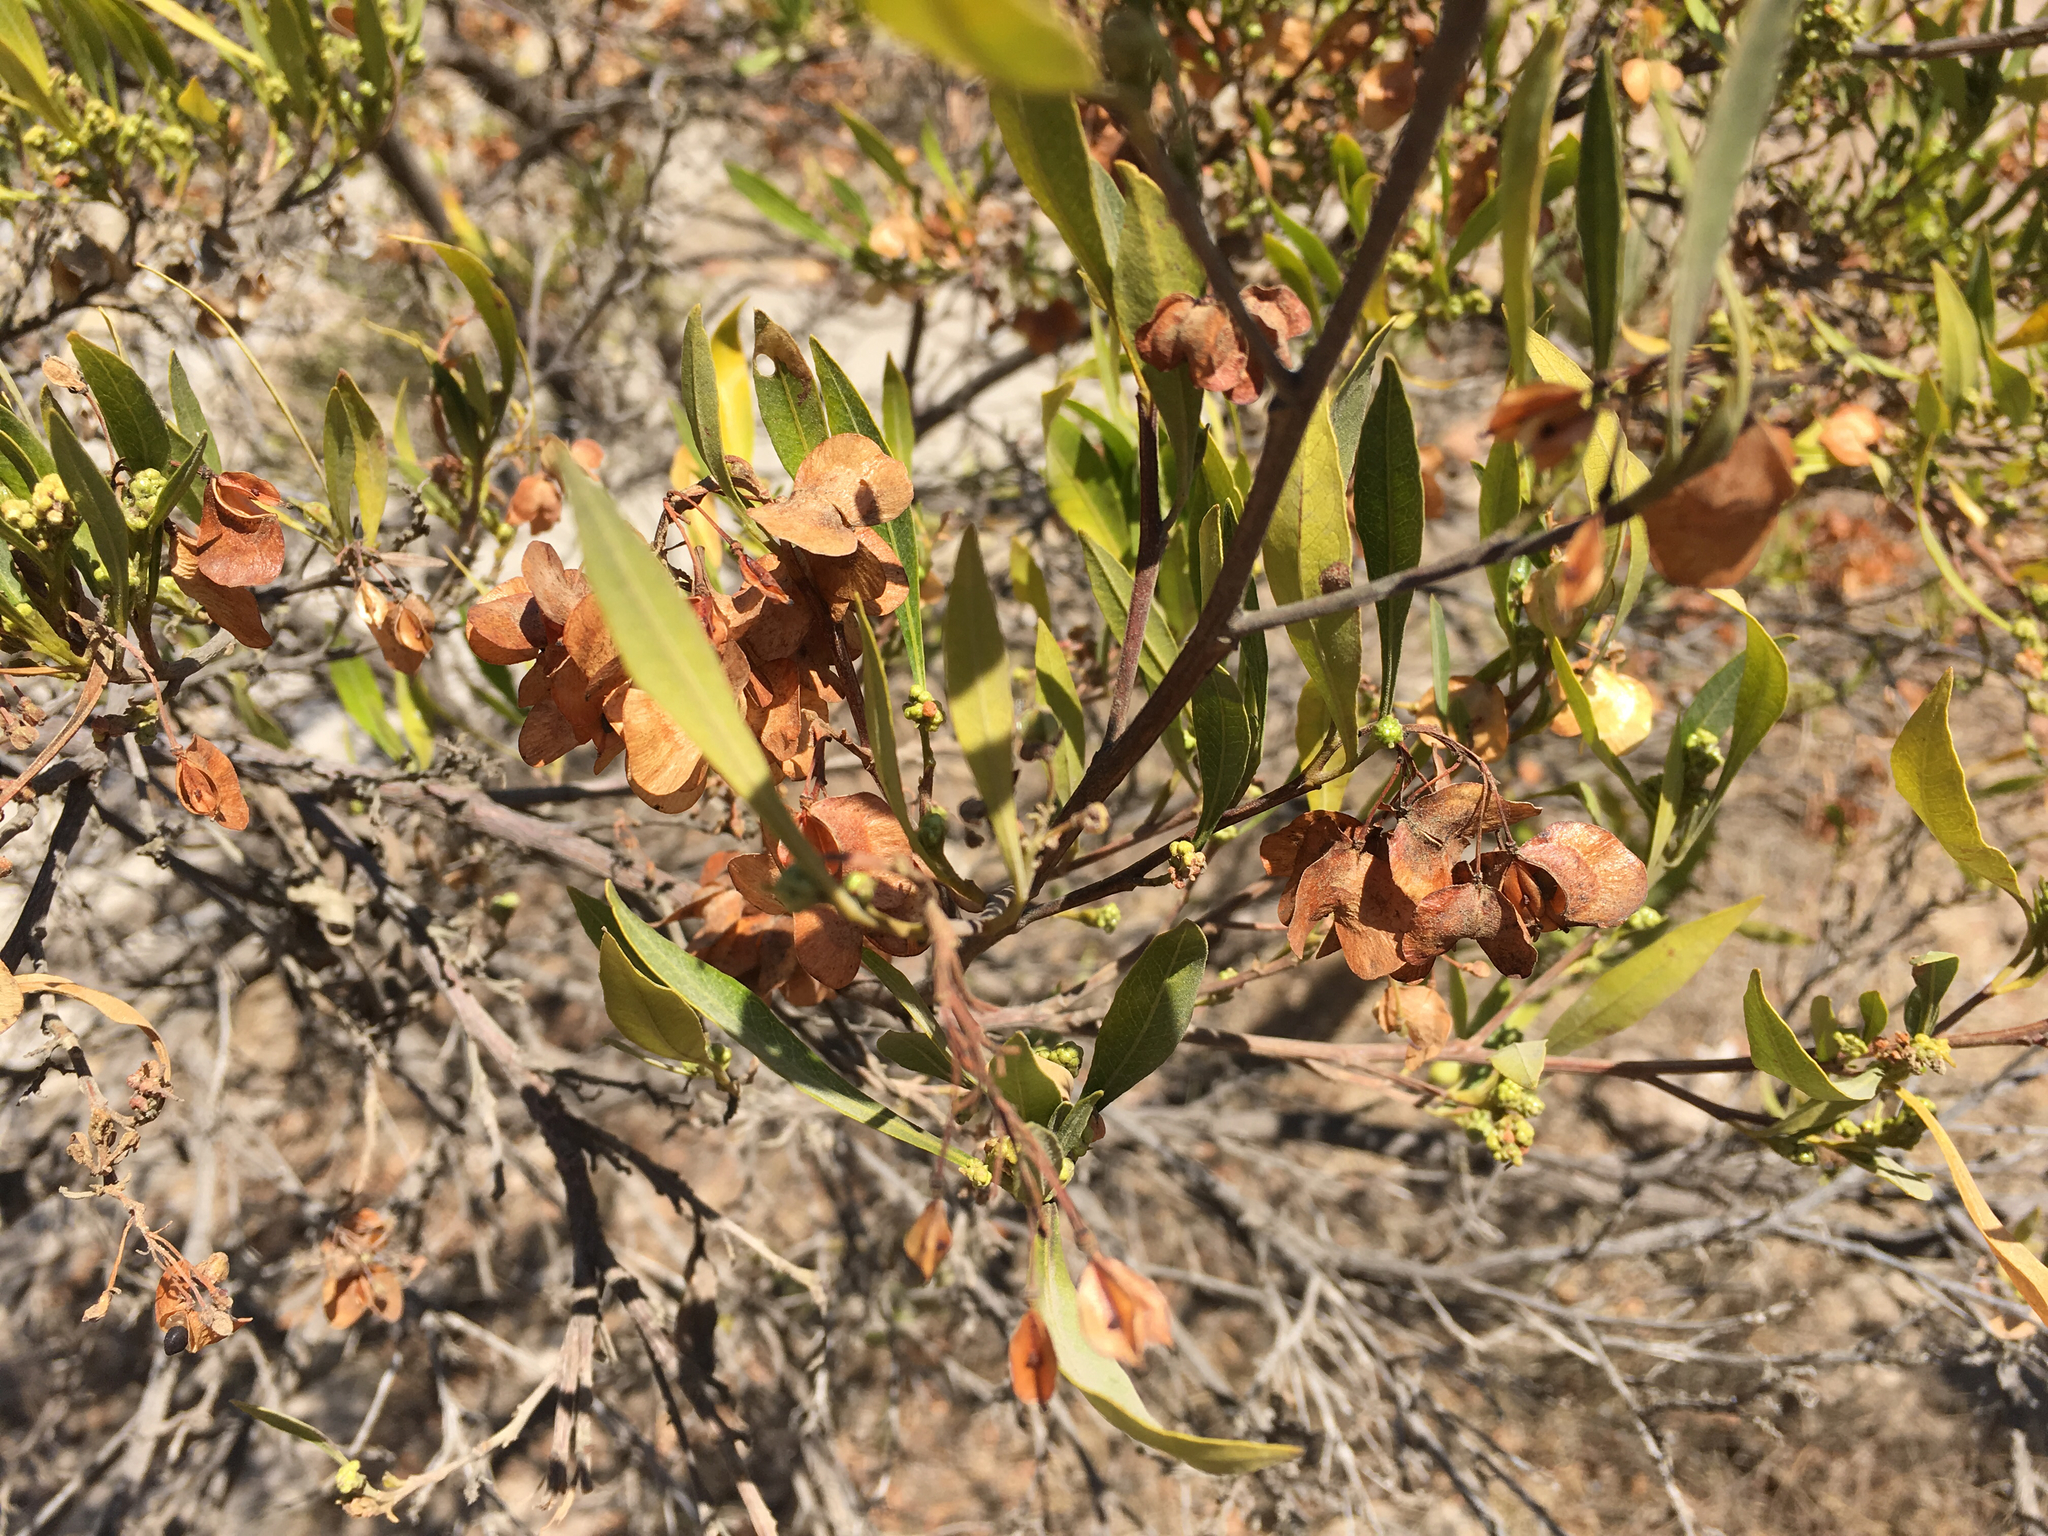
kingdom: Plantae
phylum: Tracheophyta
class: Magnoliopsida
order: Sapindales
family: Sapindaceae
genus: Dodonaea
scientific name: Dodonaea viscosa
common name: Hopbush
